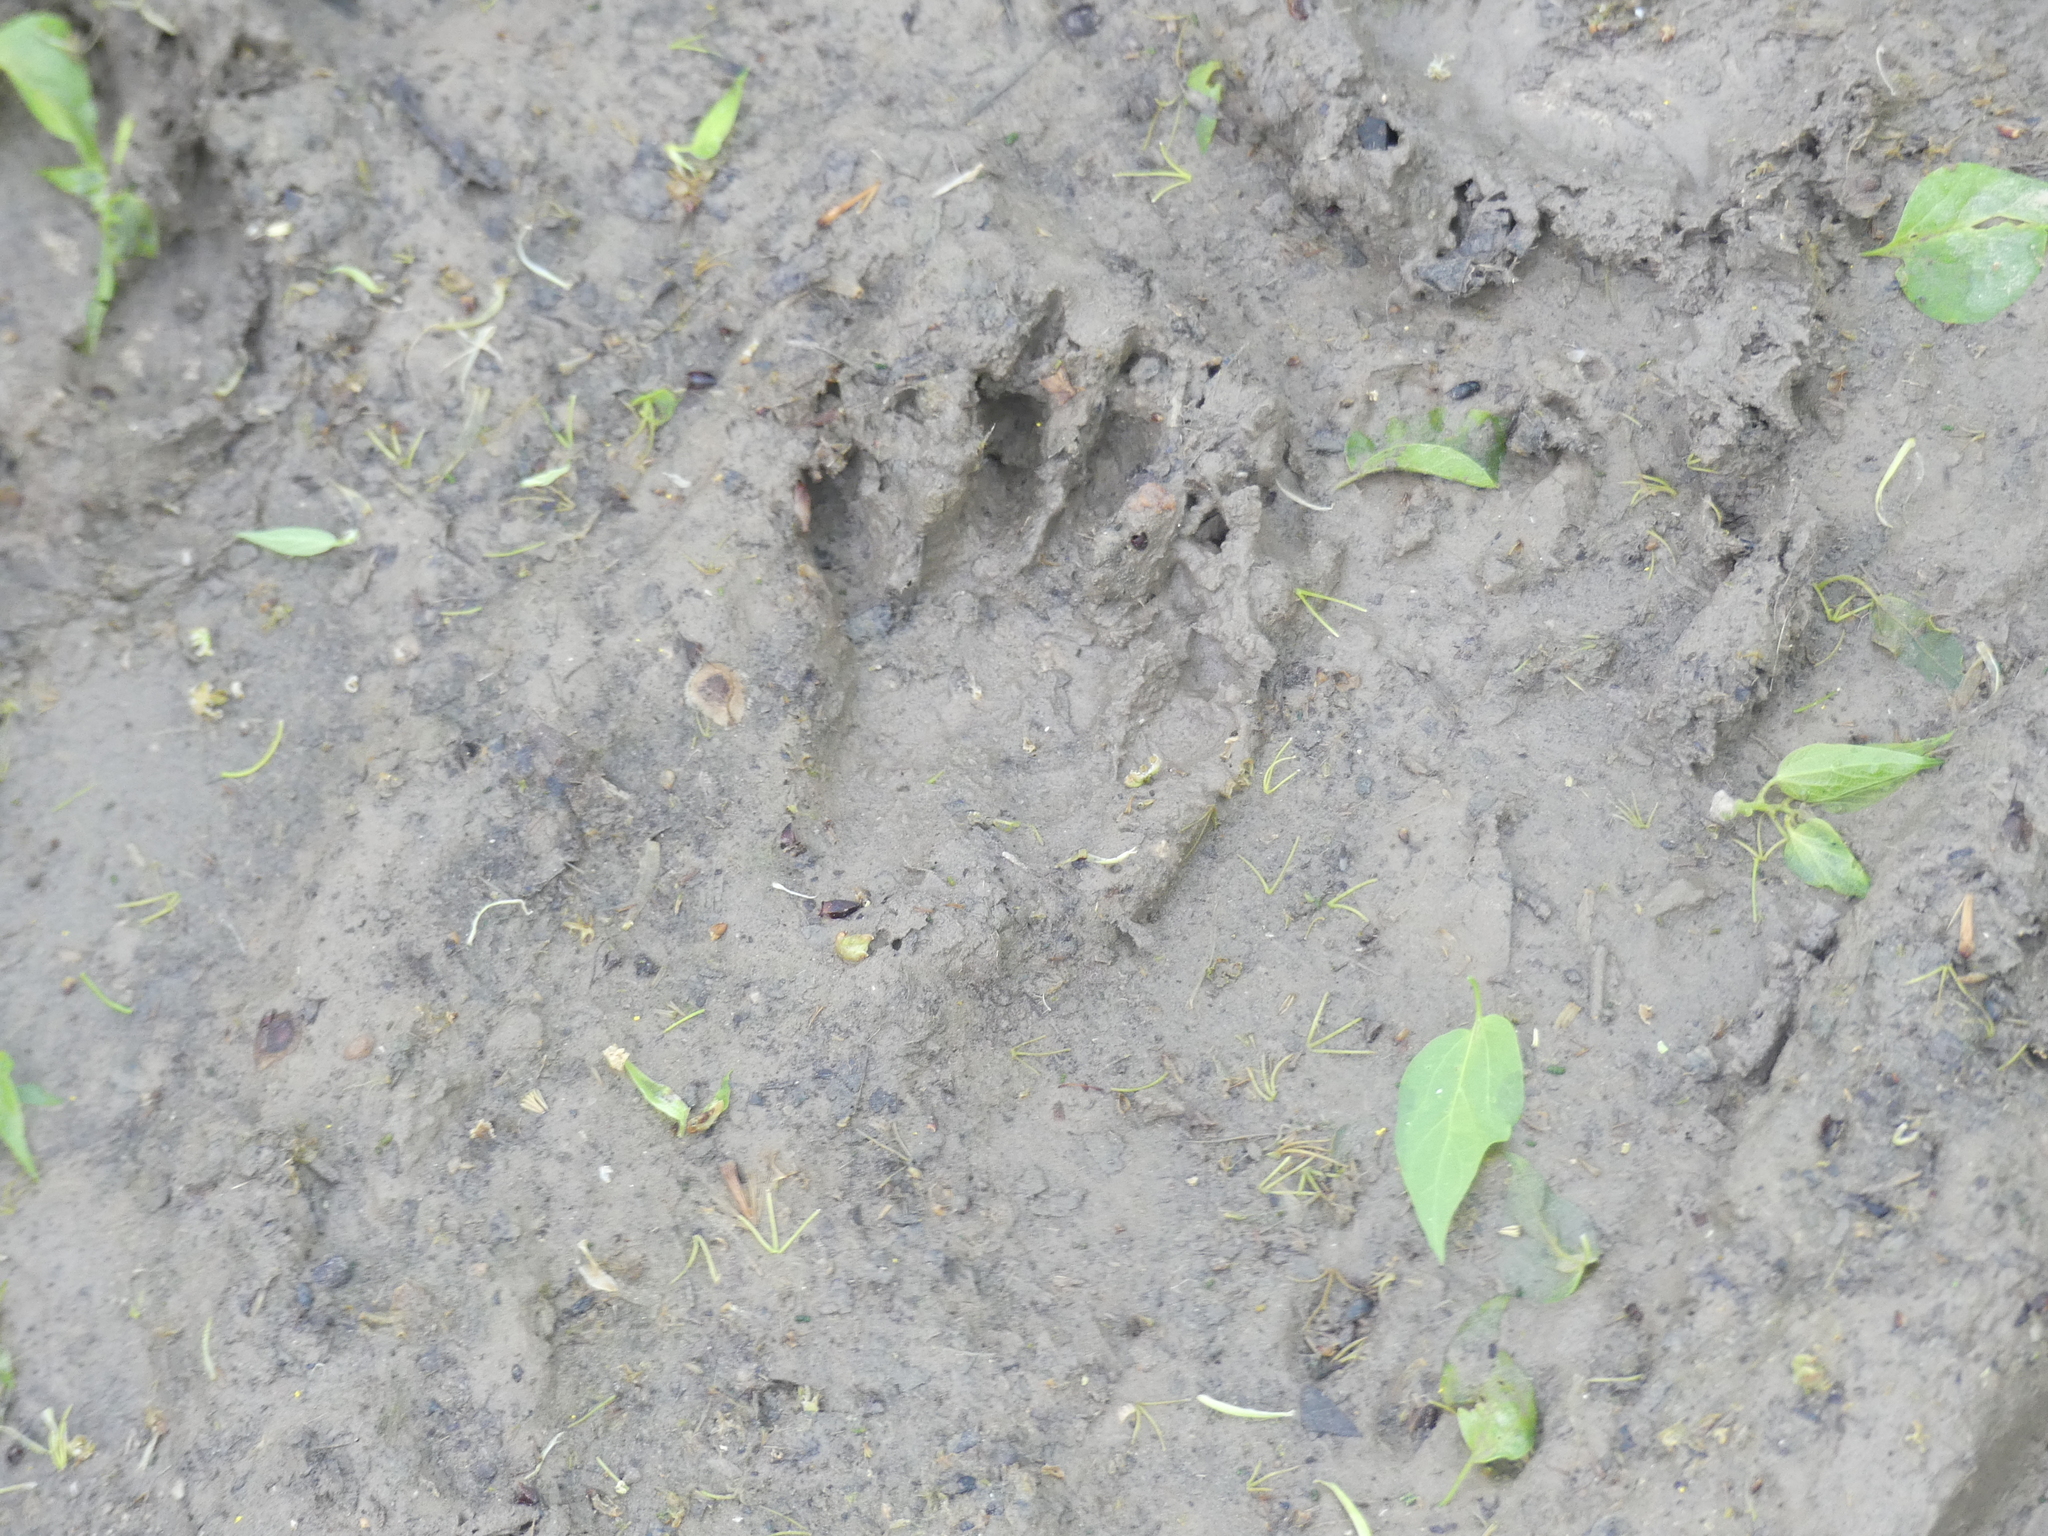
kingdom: Animalia
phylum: Chordata
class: Mammalia
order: Carnivora
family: Procyonidae
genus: Procyon
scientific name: Procyon lotor
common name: Raccoon
